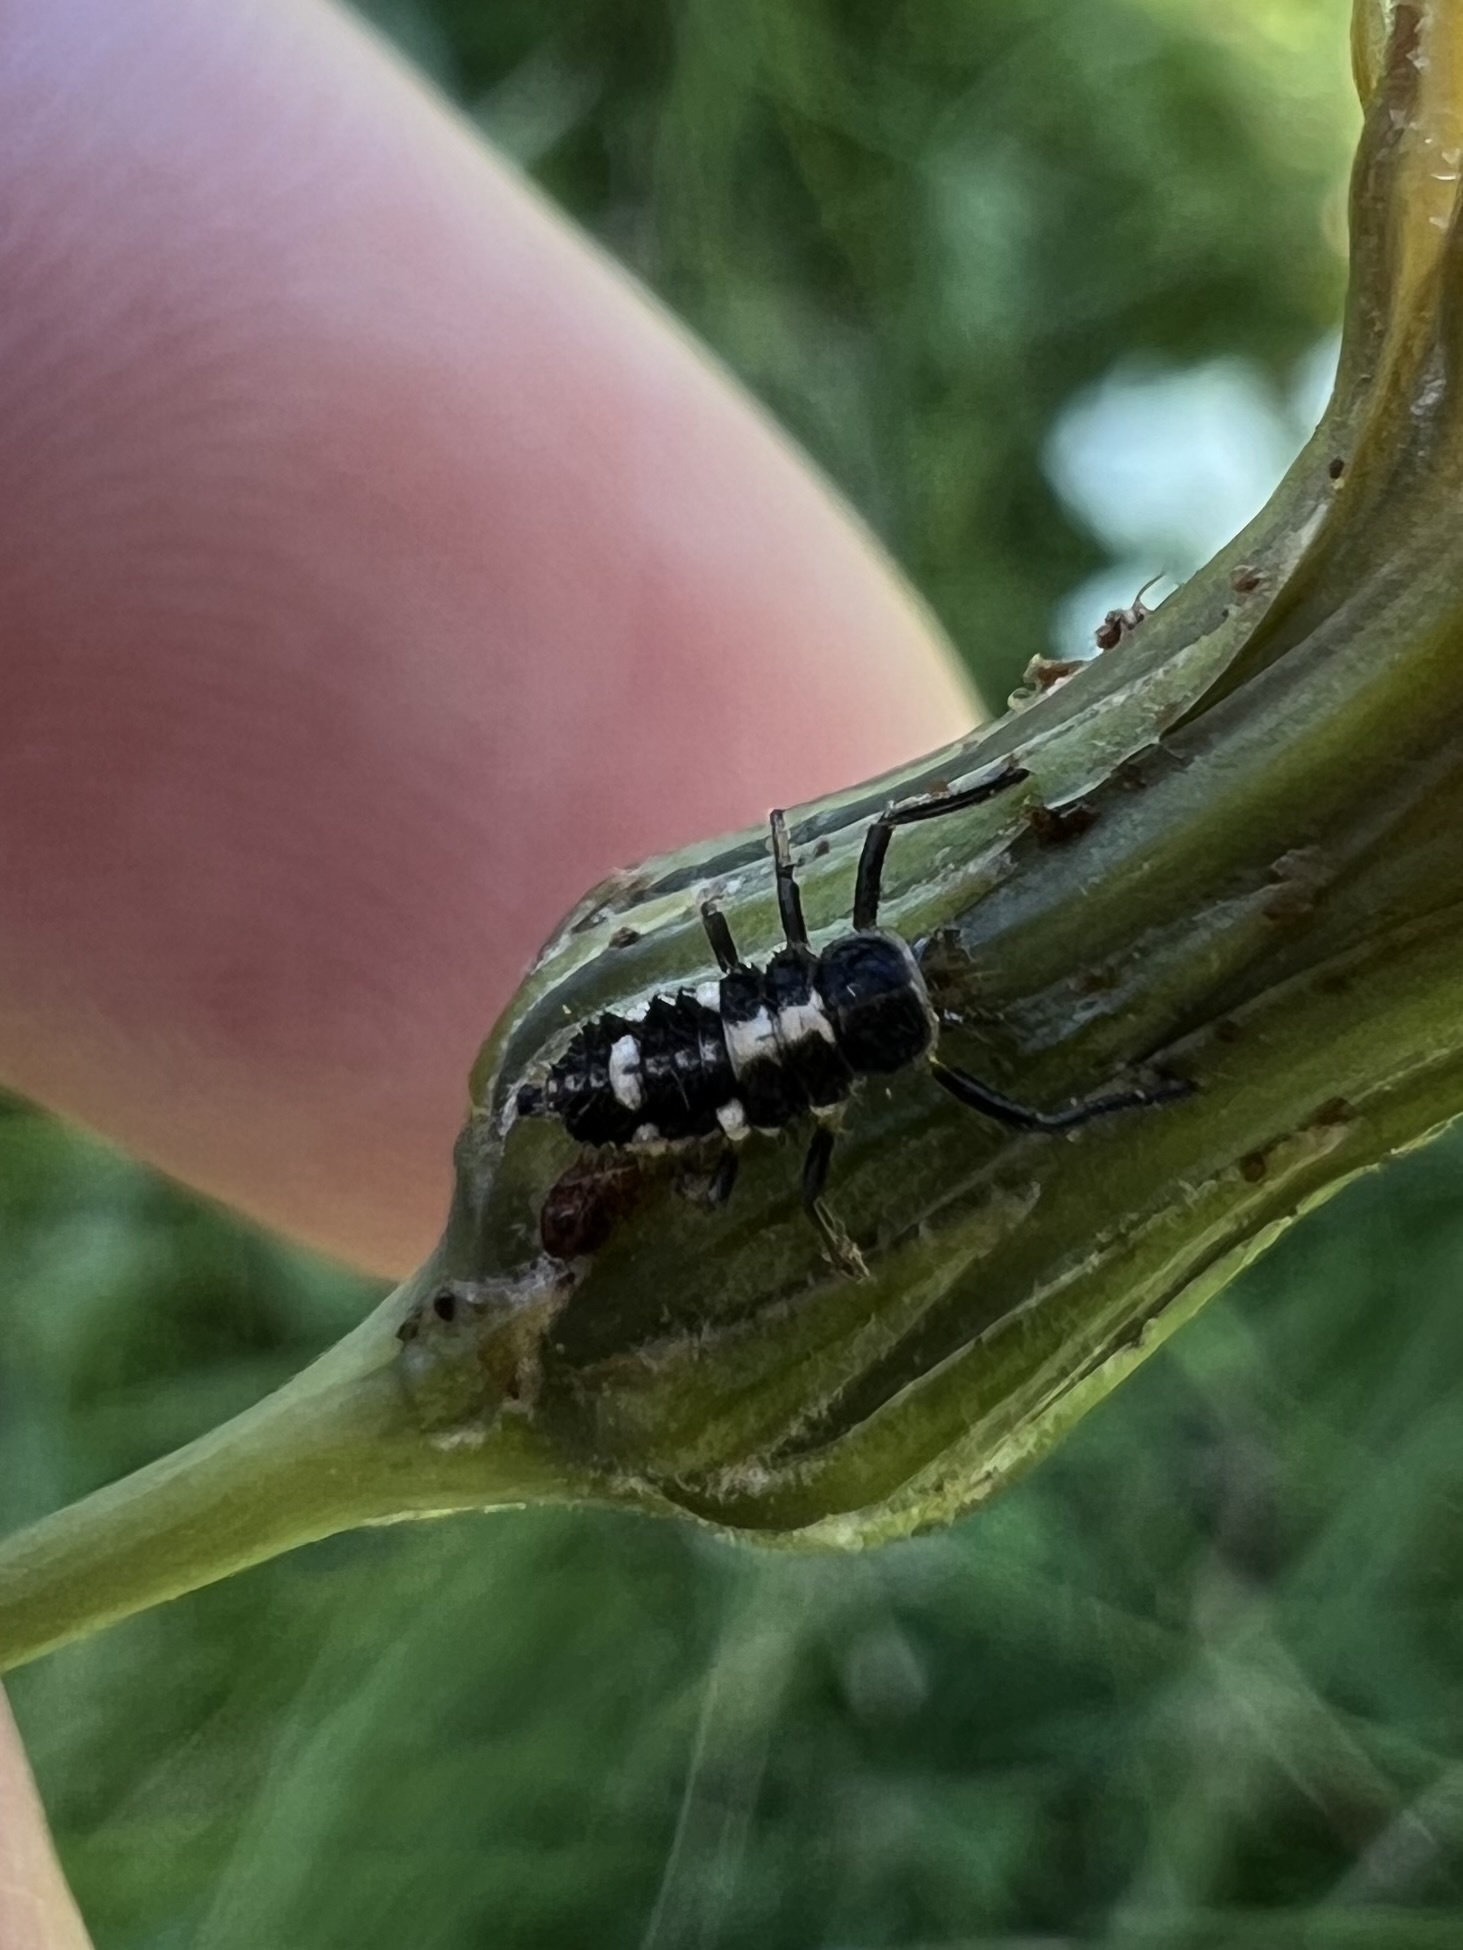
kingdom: Animalia
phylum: Arthropoda
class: Insecta
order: Coleoptera
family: Coccinellidae
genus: Propylaea
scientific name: Propylaea quatuordecimpunctata
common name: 14-spotted ladybird beetle
